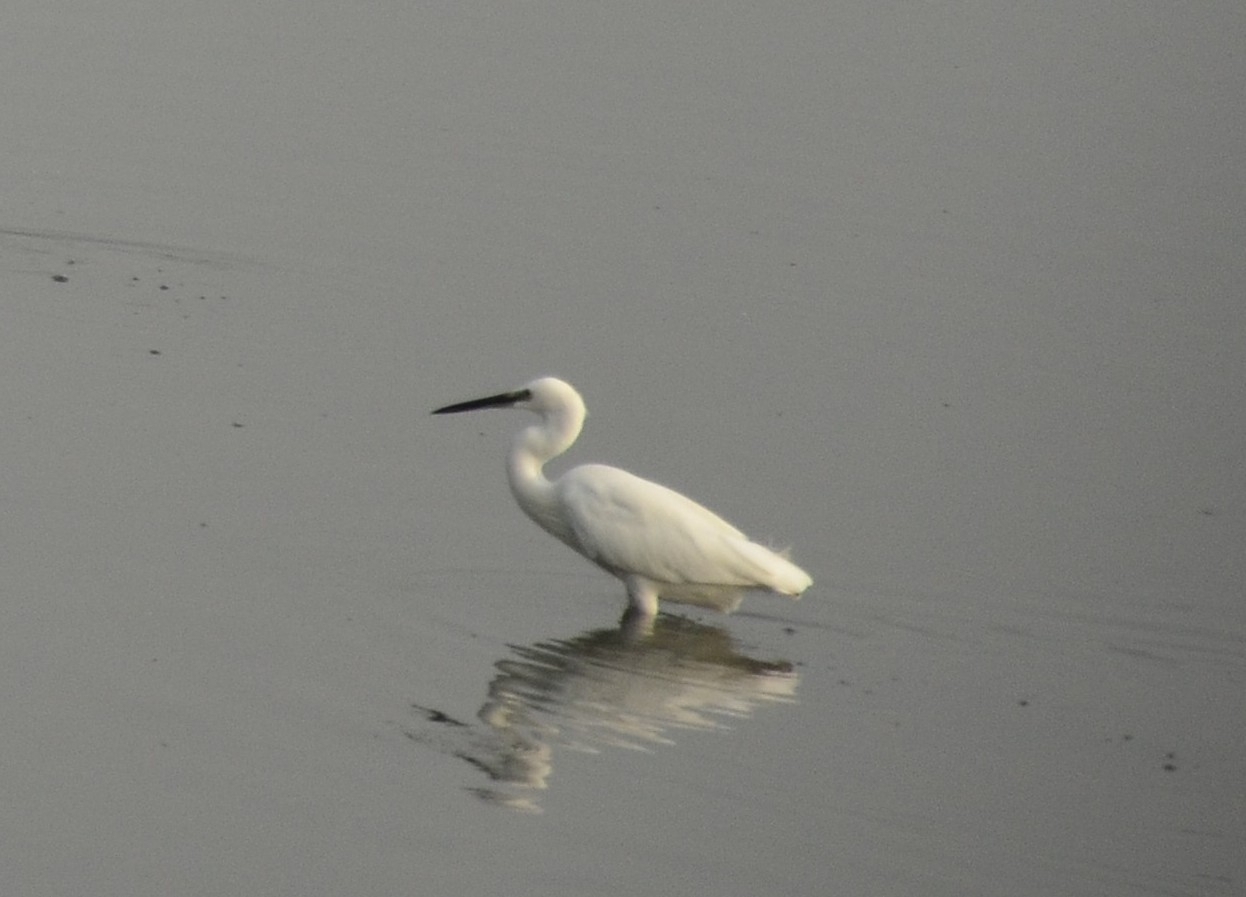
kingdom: Animalia
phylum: Chordata
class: Aves
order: Pelecaniformes
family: Ardeidae
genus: Egretta
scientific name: Egretta garzetta
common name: Little egret
